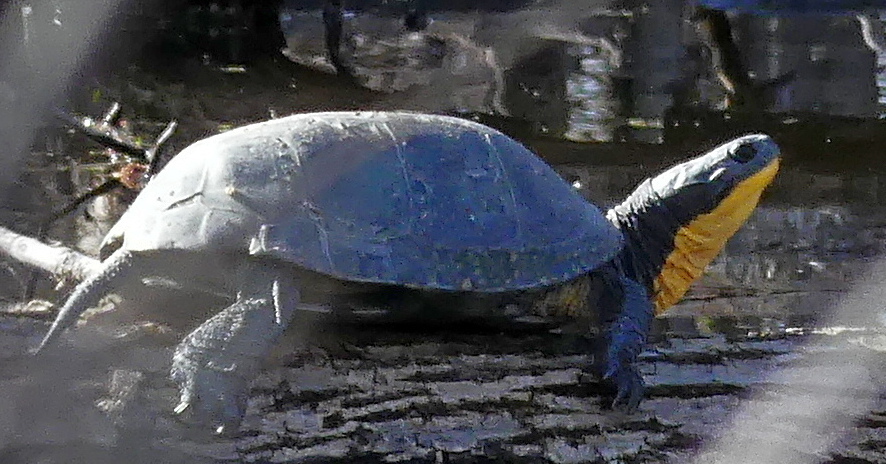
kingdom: Animalia
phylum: Chordata
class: Testudines
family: Emydidae
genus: Emys
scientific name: Emys blandingii
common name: Blanding's turtle
